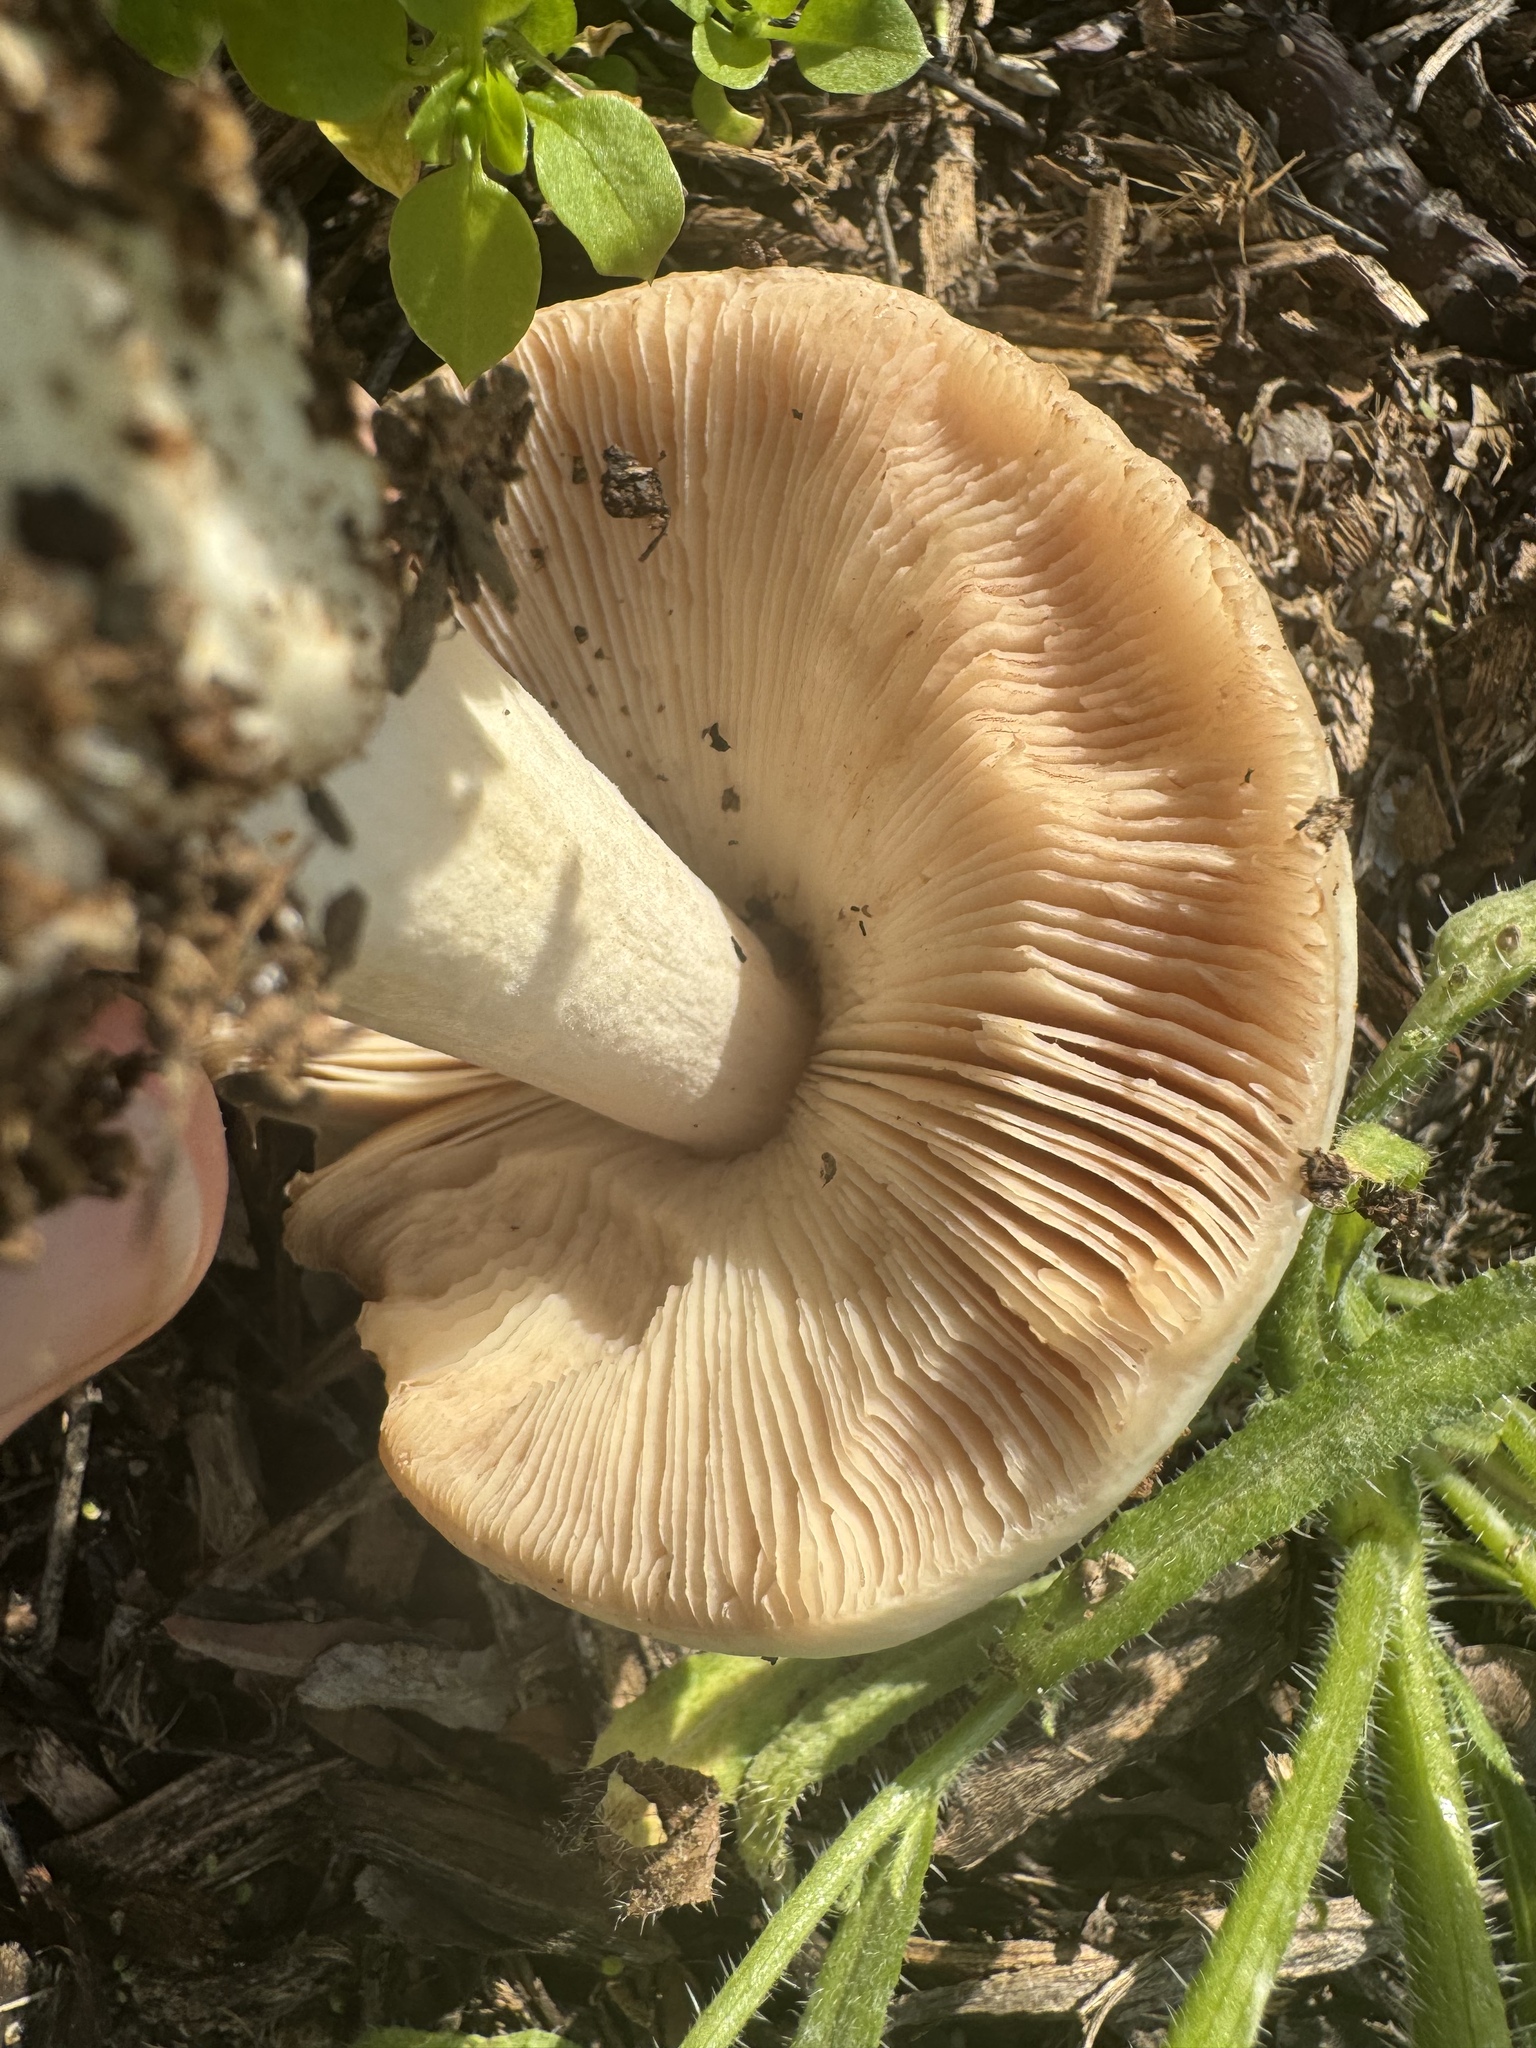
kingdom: Fungi
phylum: Basidiomycota
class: Agaricomycetes
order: Agaricales
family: Pluteaceae
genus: Volvopluteus
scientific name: Volvopluteus gloiocephalus
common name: Stubble rosegill
